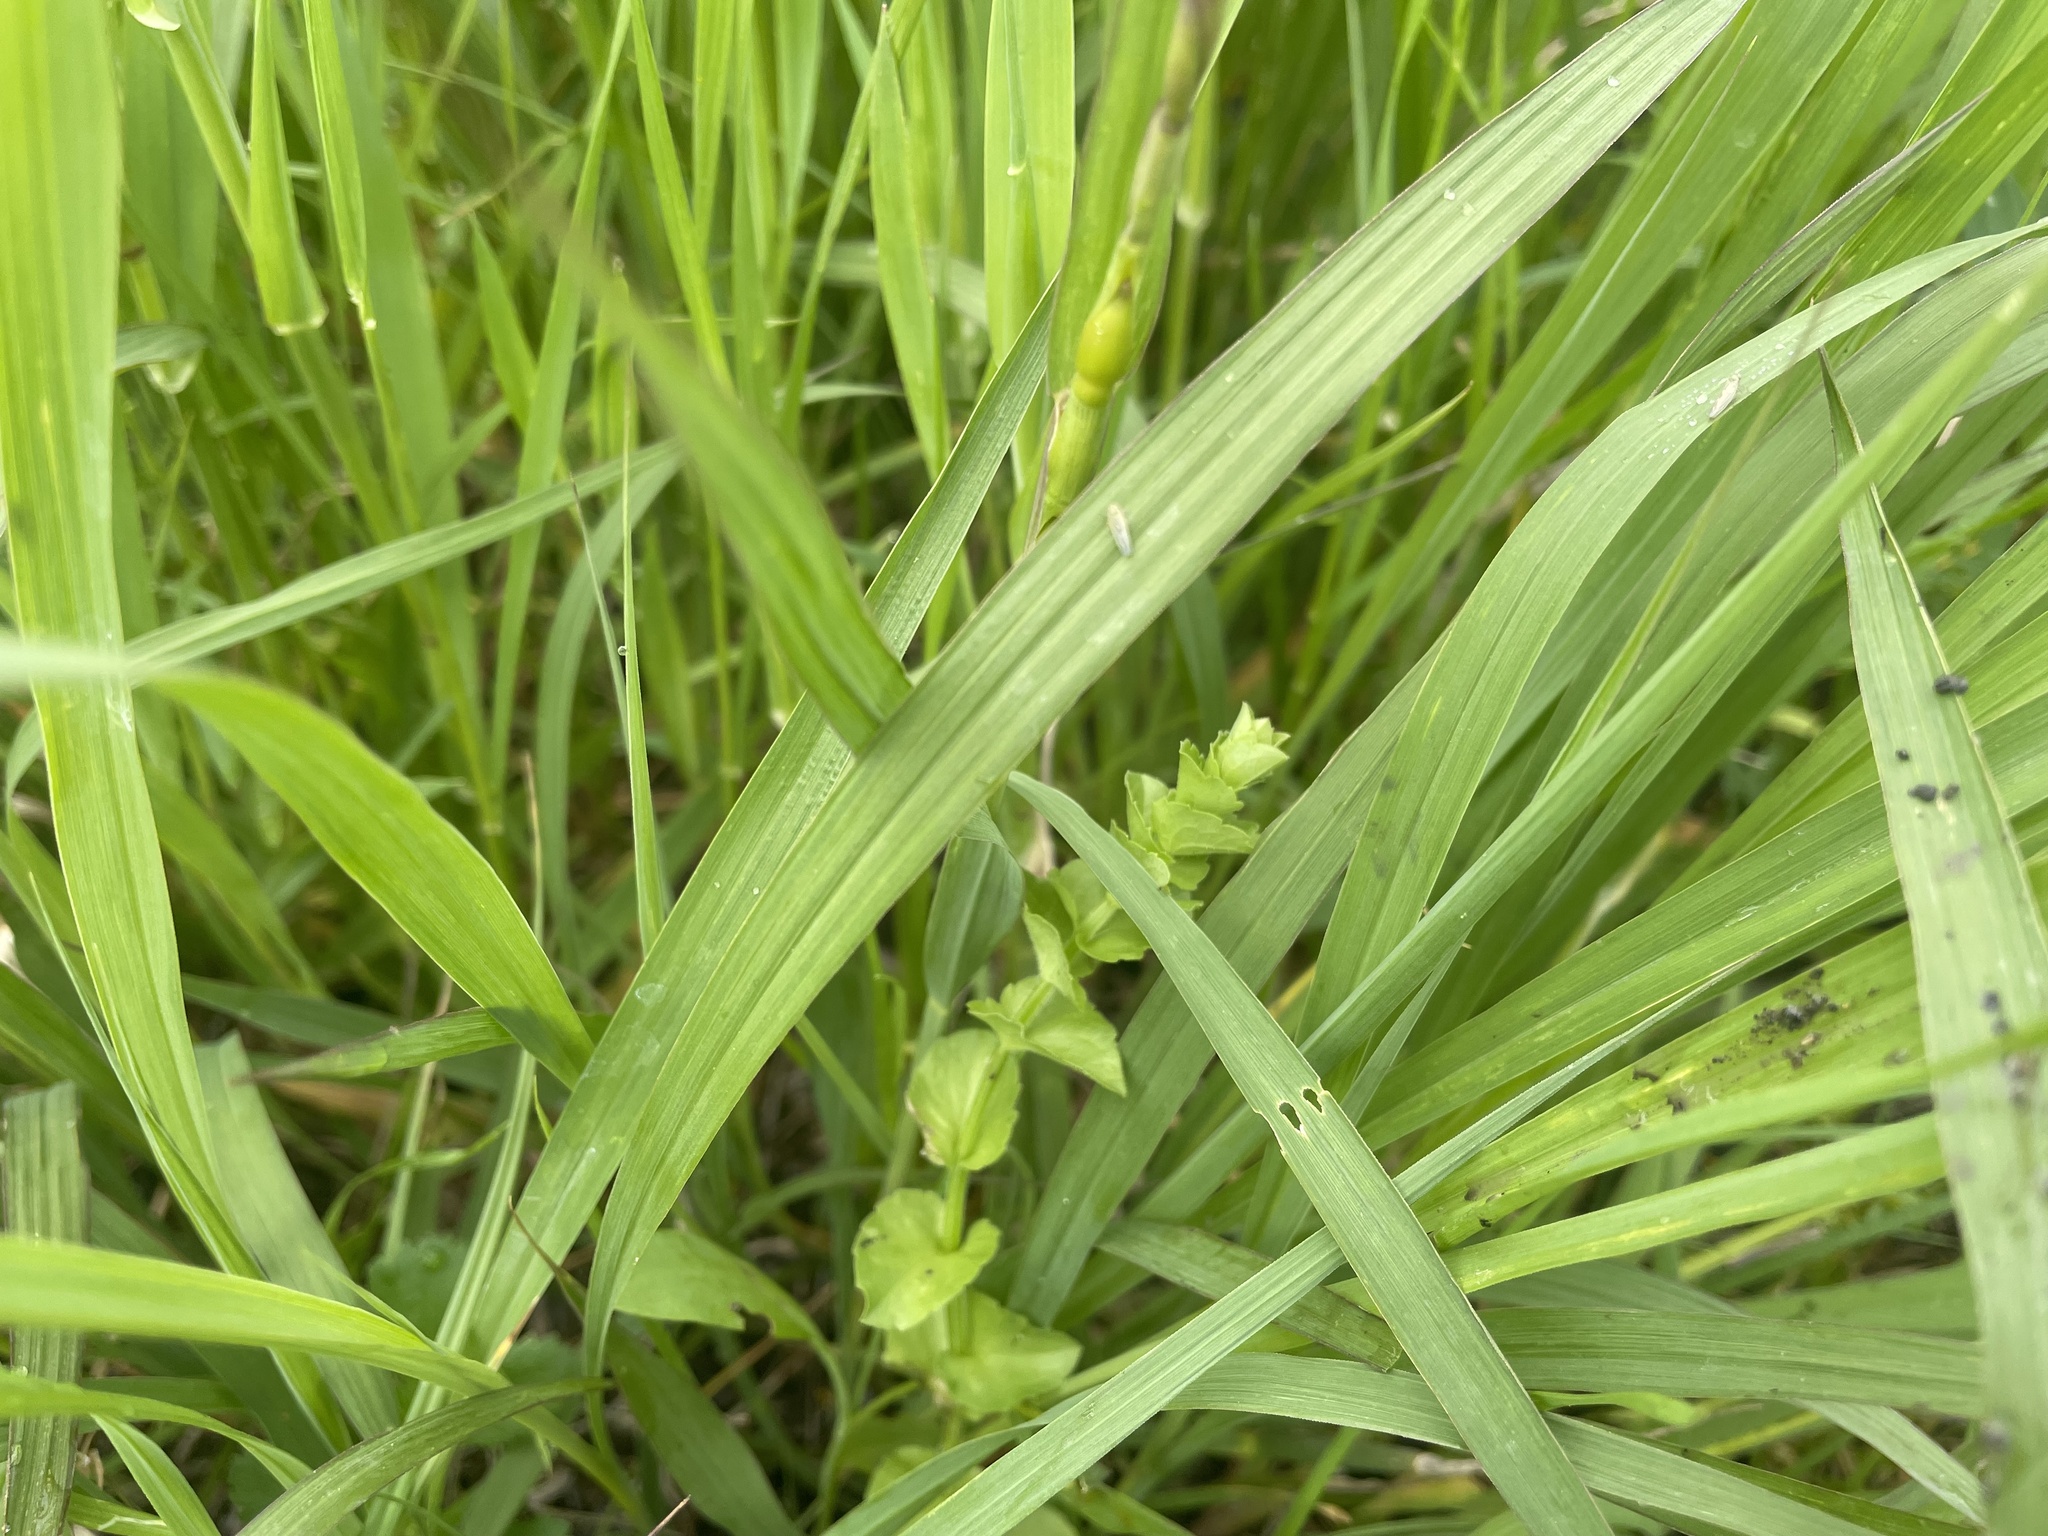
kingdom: Plantae
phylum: Tracheophyta
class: Liliopsida
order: Poales
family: Poaceae
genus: Tripsacum
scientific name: Tripsacum dactyloides
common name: Buffalo-grass
